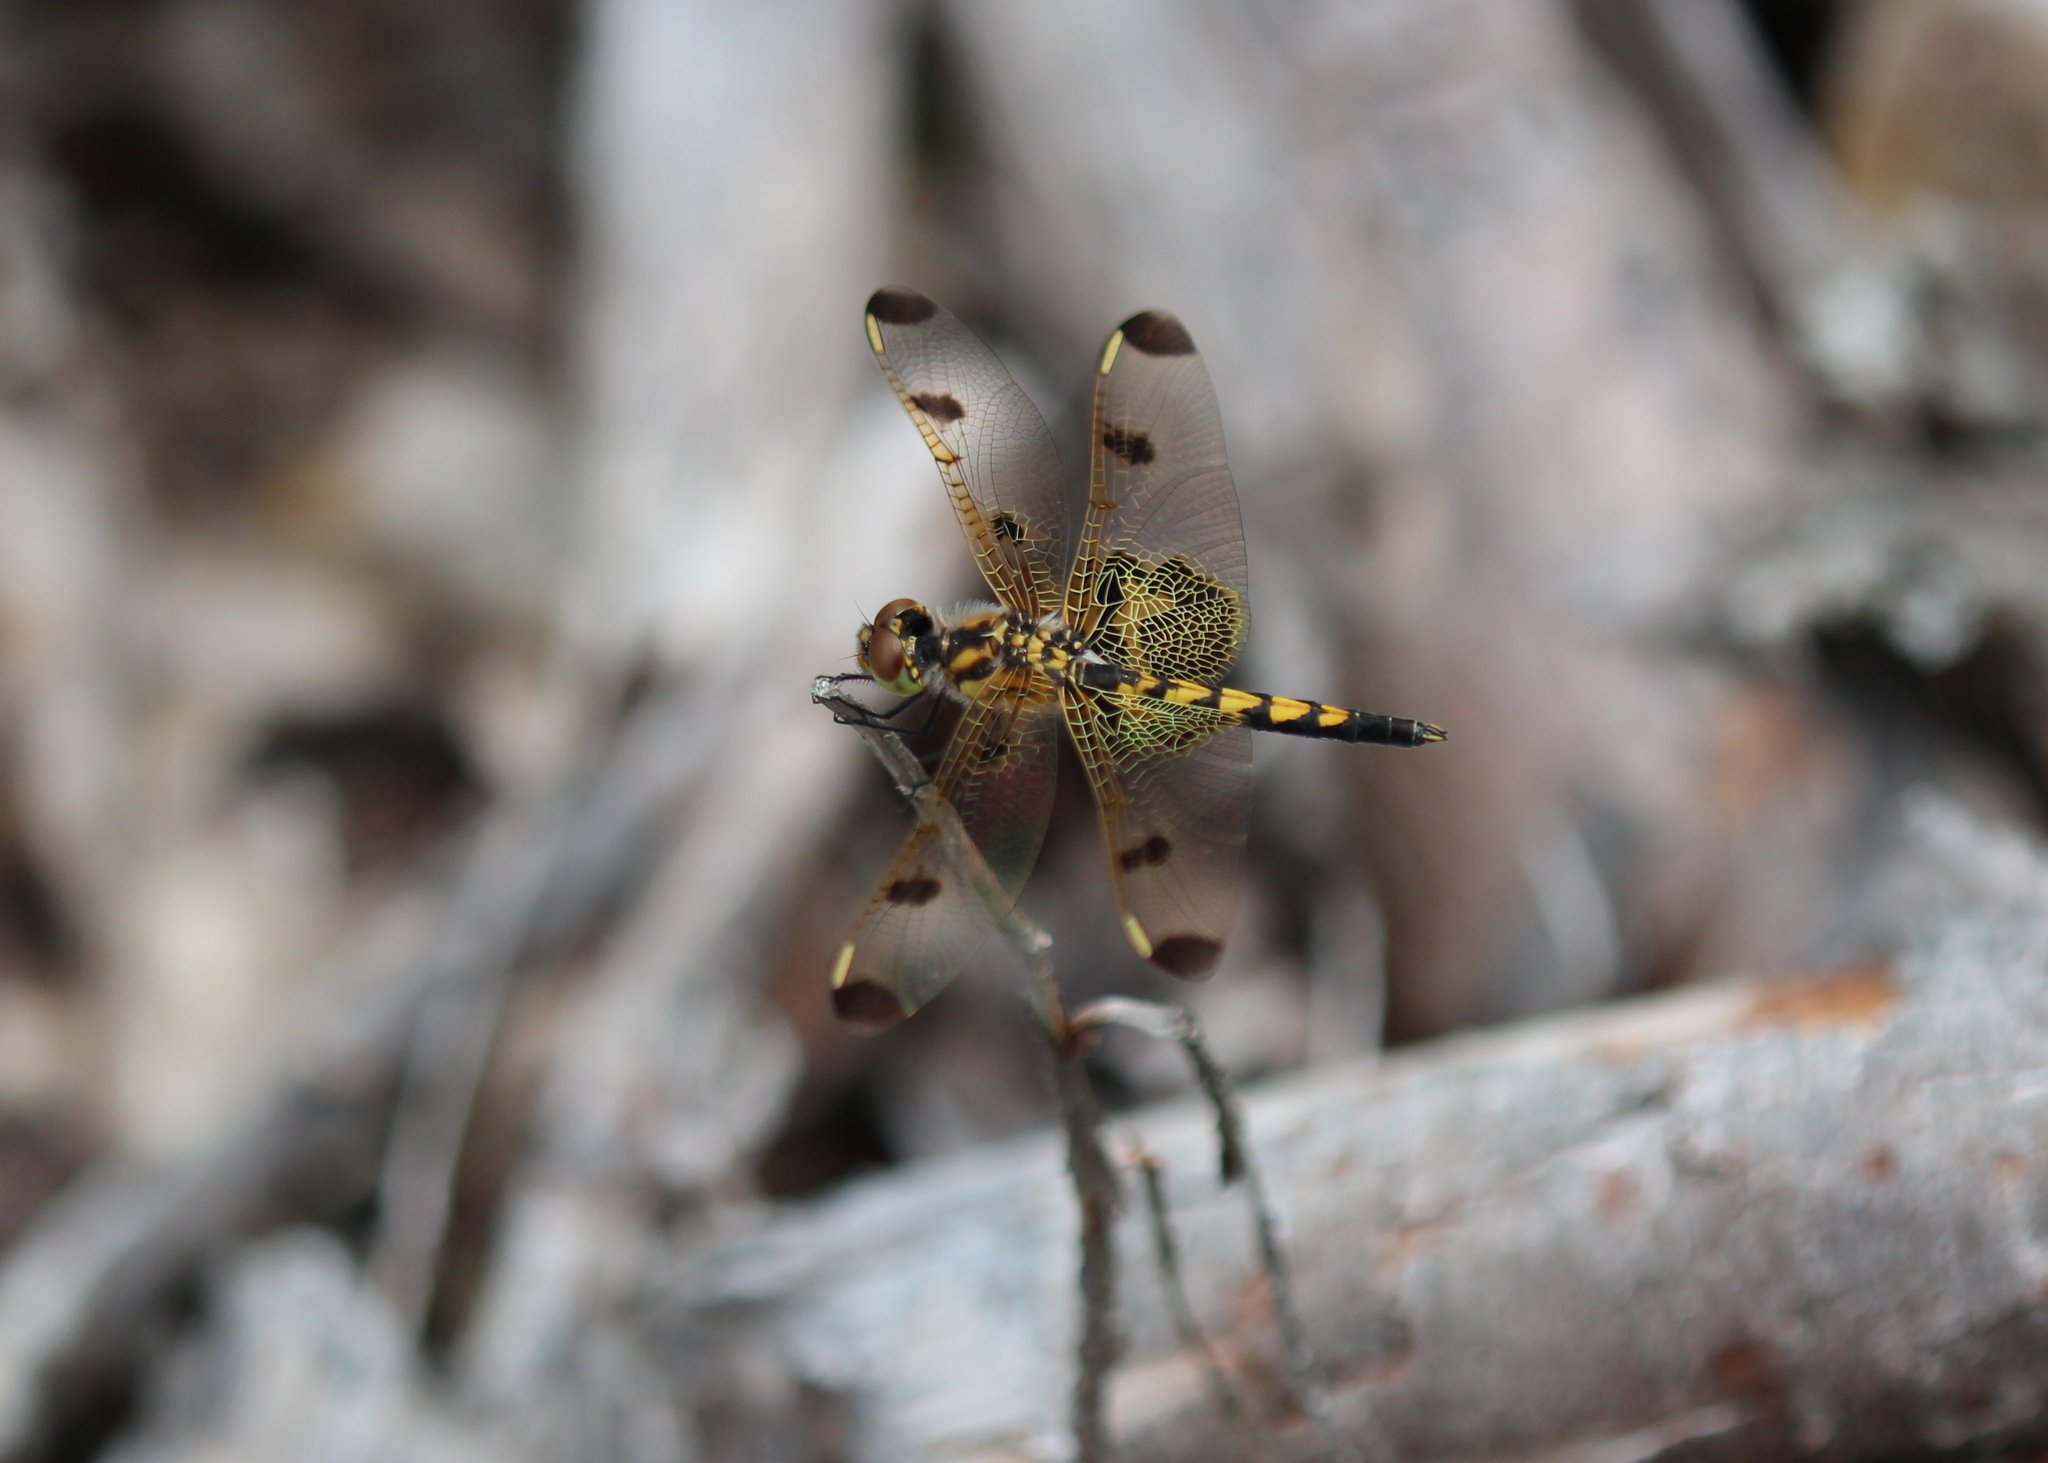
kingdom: Animalia
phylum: Arthropoda
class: Insecta
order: Odonata
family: Libellulidae
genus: Celithemis
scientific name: Celithemis elisa
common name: Calico pennant
